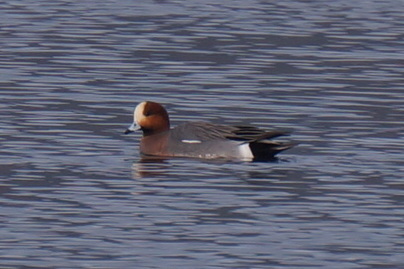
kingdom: Animalia
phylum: Chordata
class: Aves
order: Anseriformes
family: Anatidae
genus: Mareca
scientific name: Mareca penelope
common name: Eurasian wigeon
